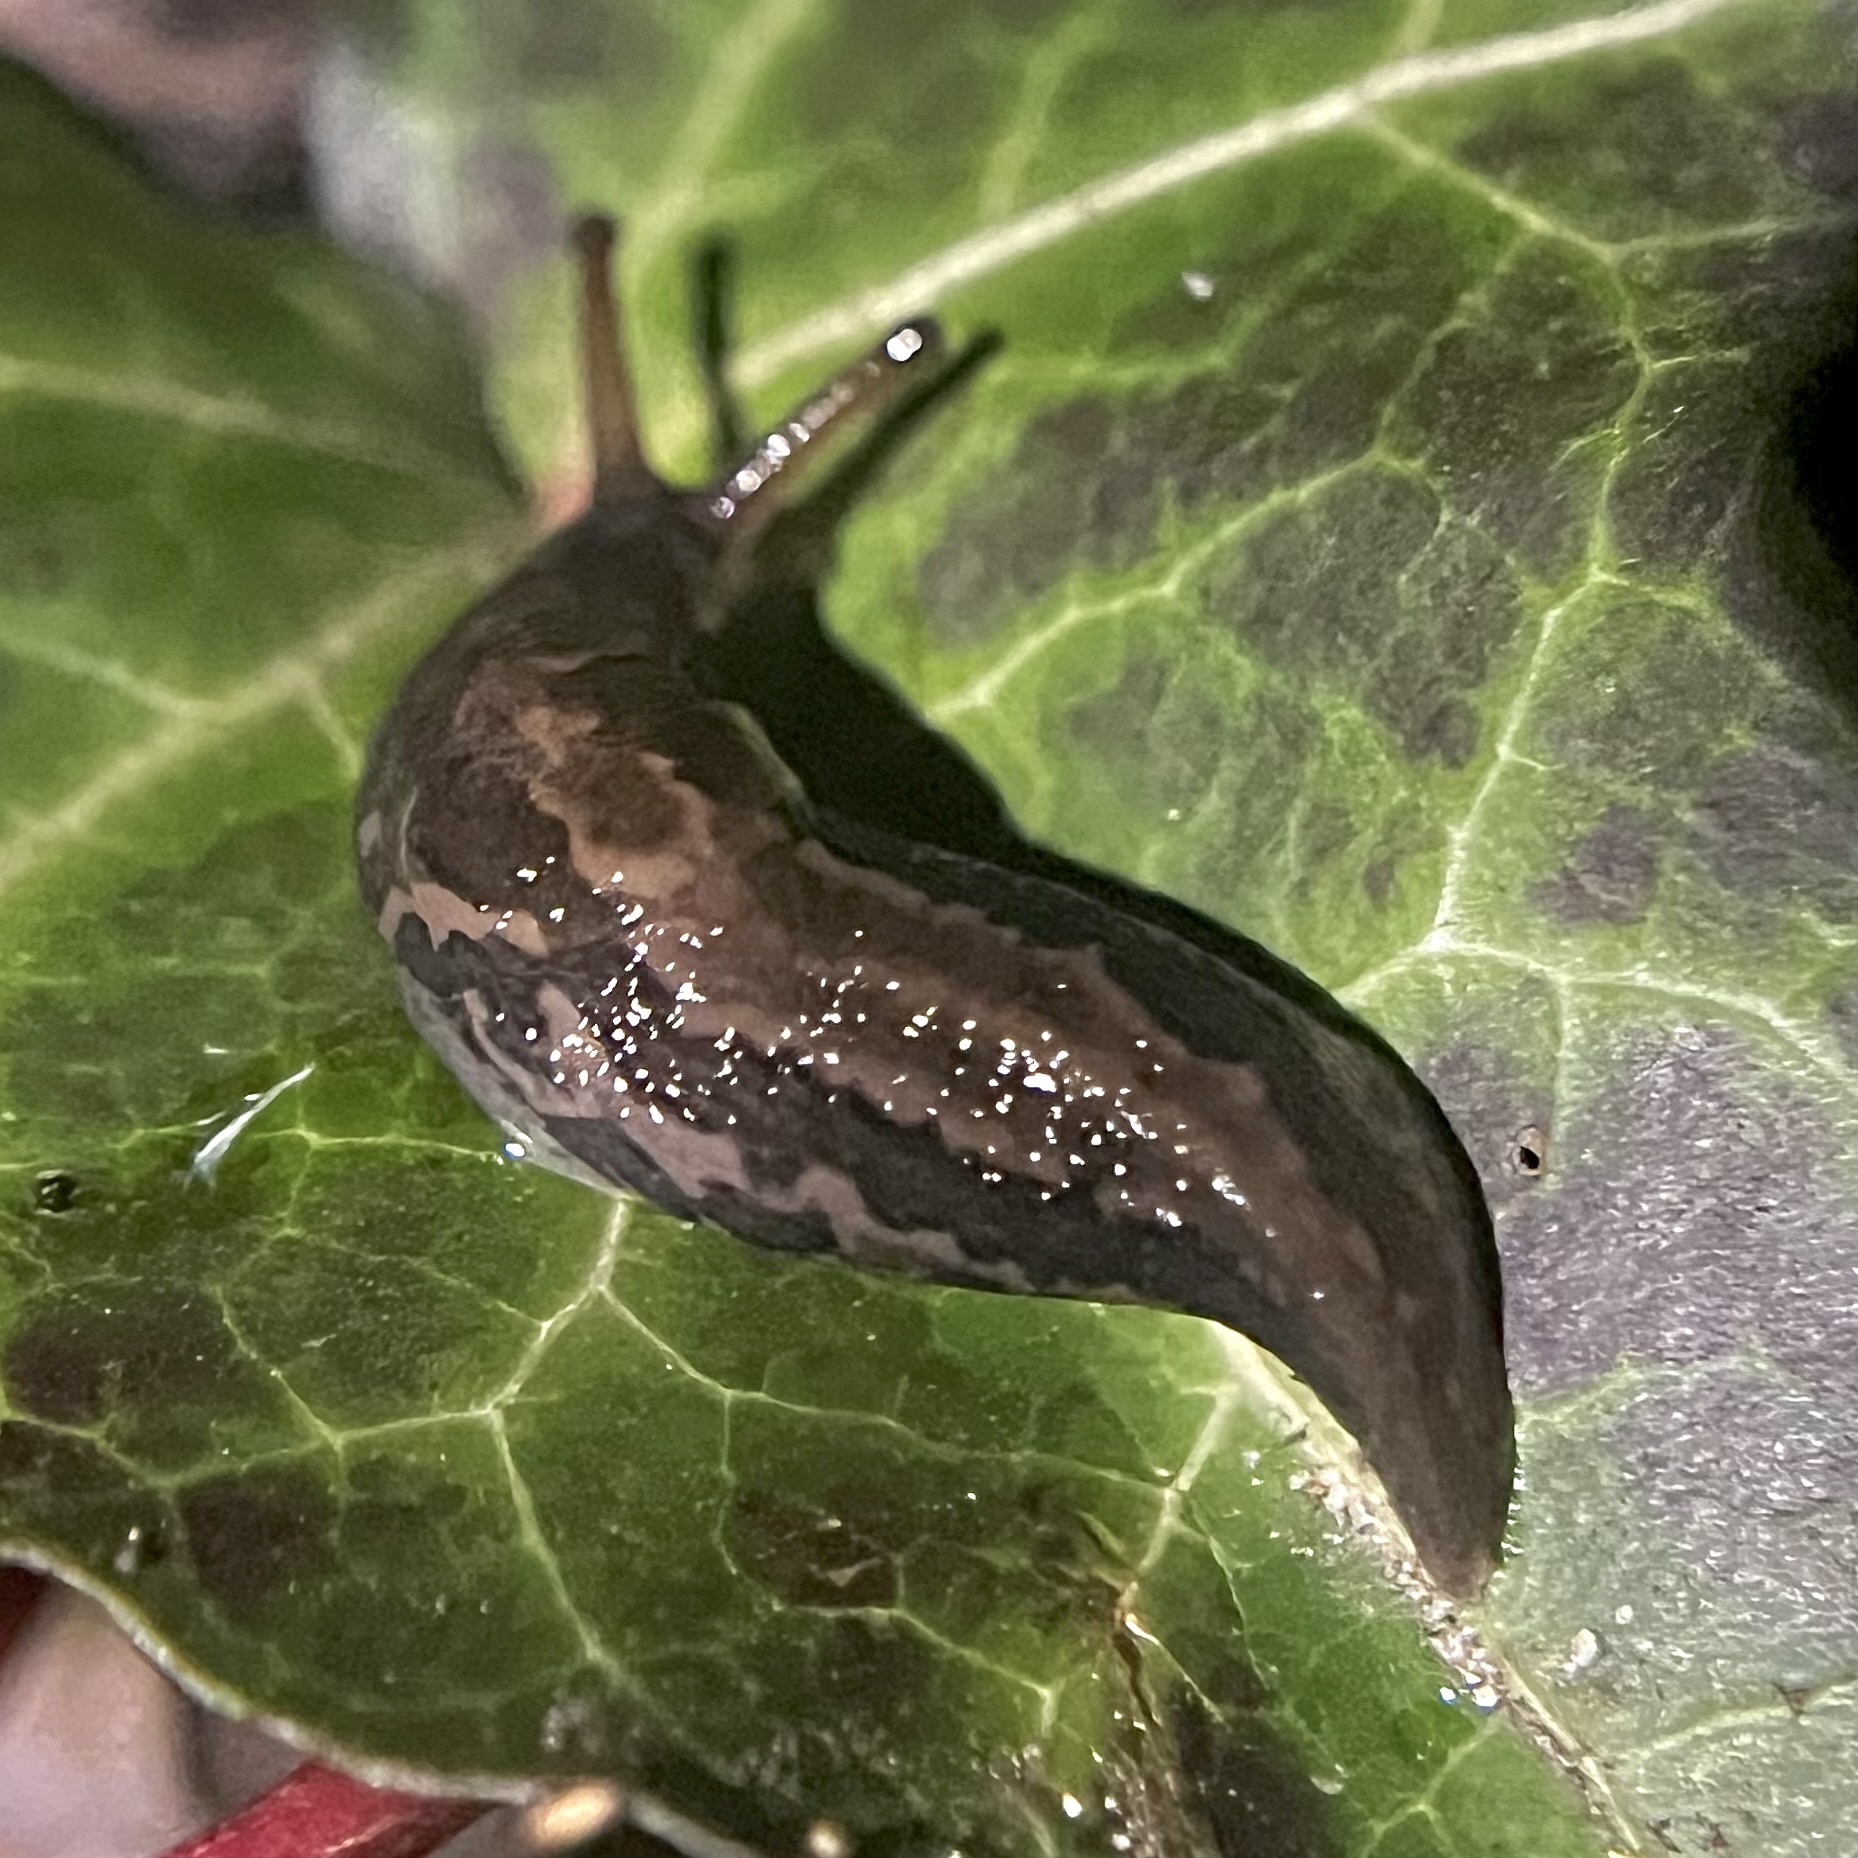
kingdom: Animalia
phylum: Mollusca
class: Gastropoda
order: Stylommatophora
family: Limacidae
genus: Limax
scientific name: Limax maximus
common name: Great grey slug
